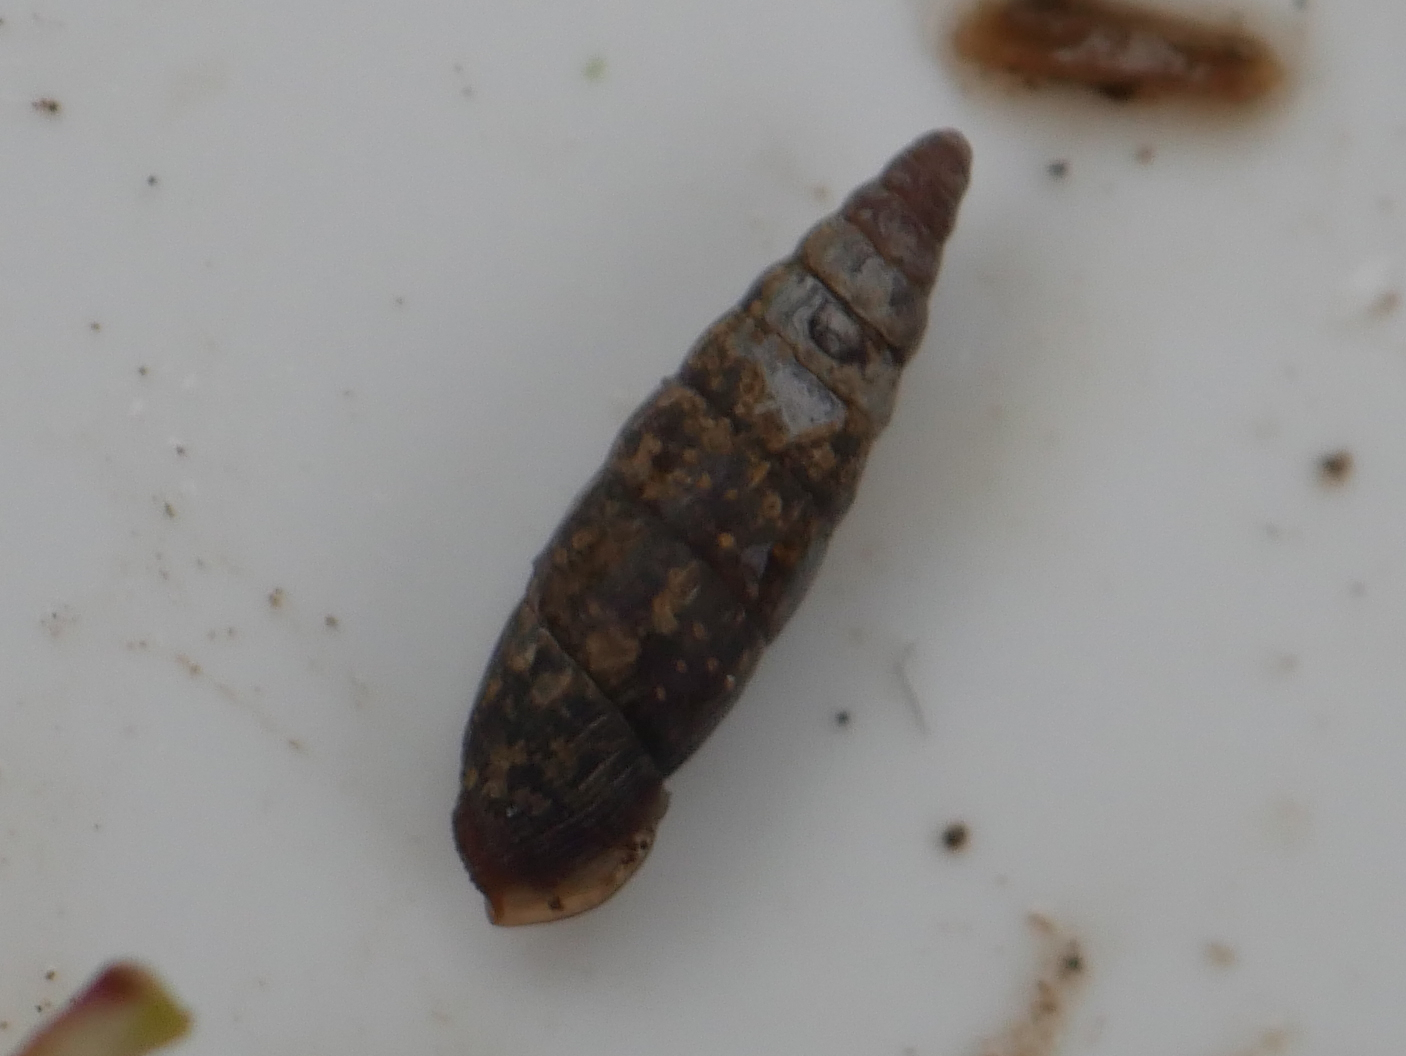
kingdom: Animalia
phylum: Mollusca
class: Gastropoda
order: Stylommatophora
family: Clausiliidae
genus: Clausilia
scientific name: Clausilia bidentata
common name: Two-toothed door snail
